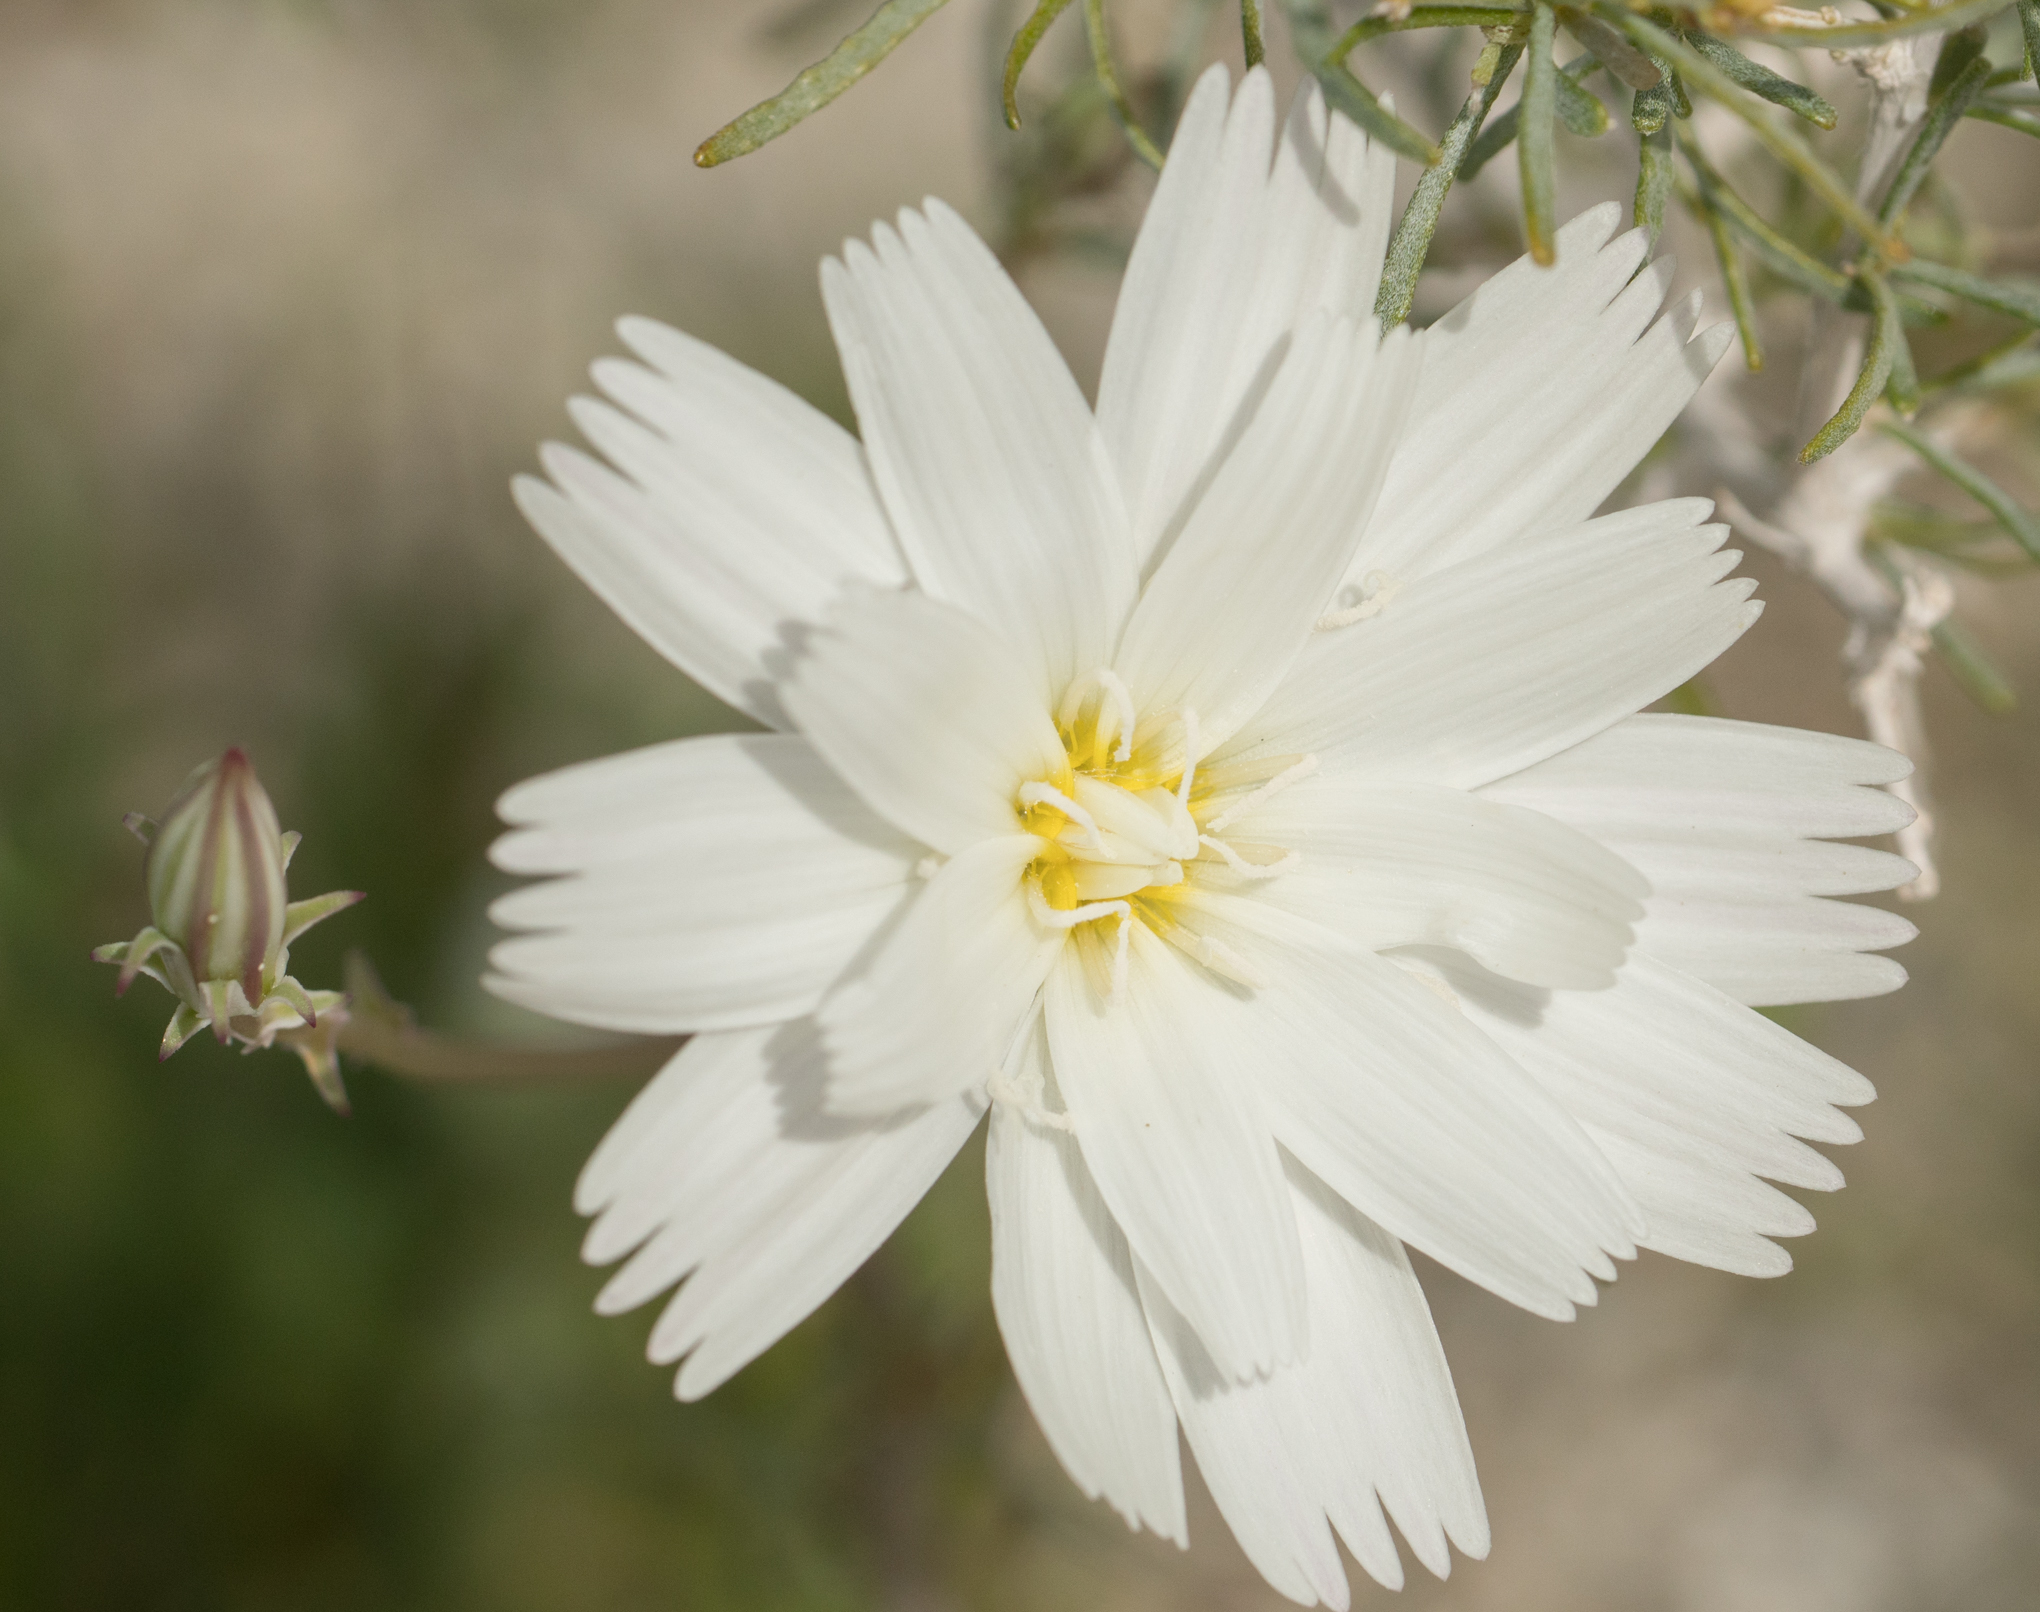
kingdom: Plantae
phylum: Tracheophyta
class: Magnoliopsida
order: Asterales
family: Asteraceae
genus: Rafinesquia
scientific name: Rafinesquia neomexicana
